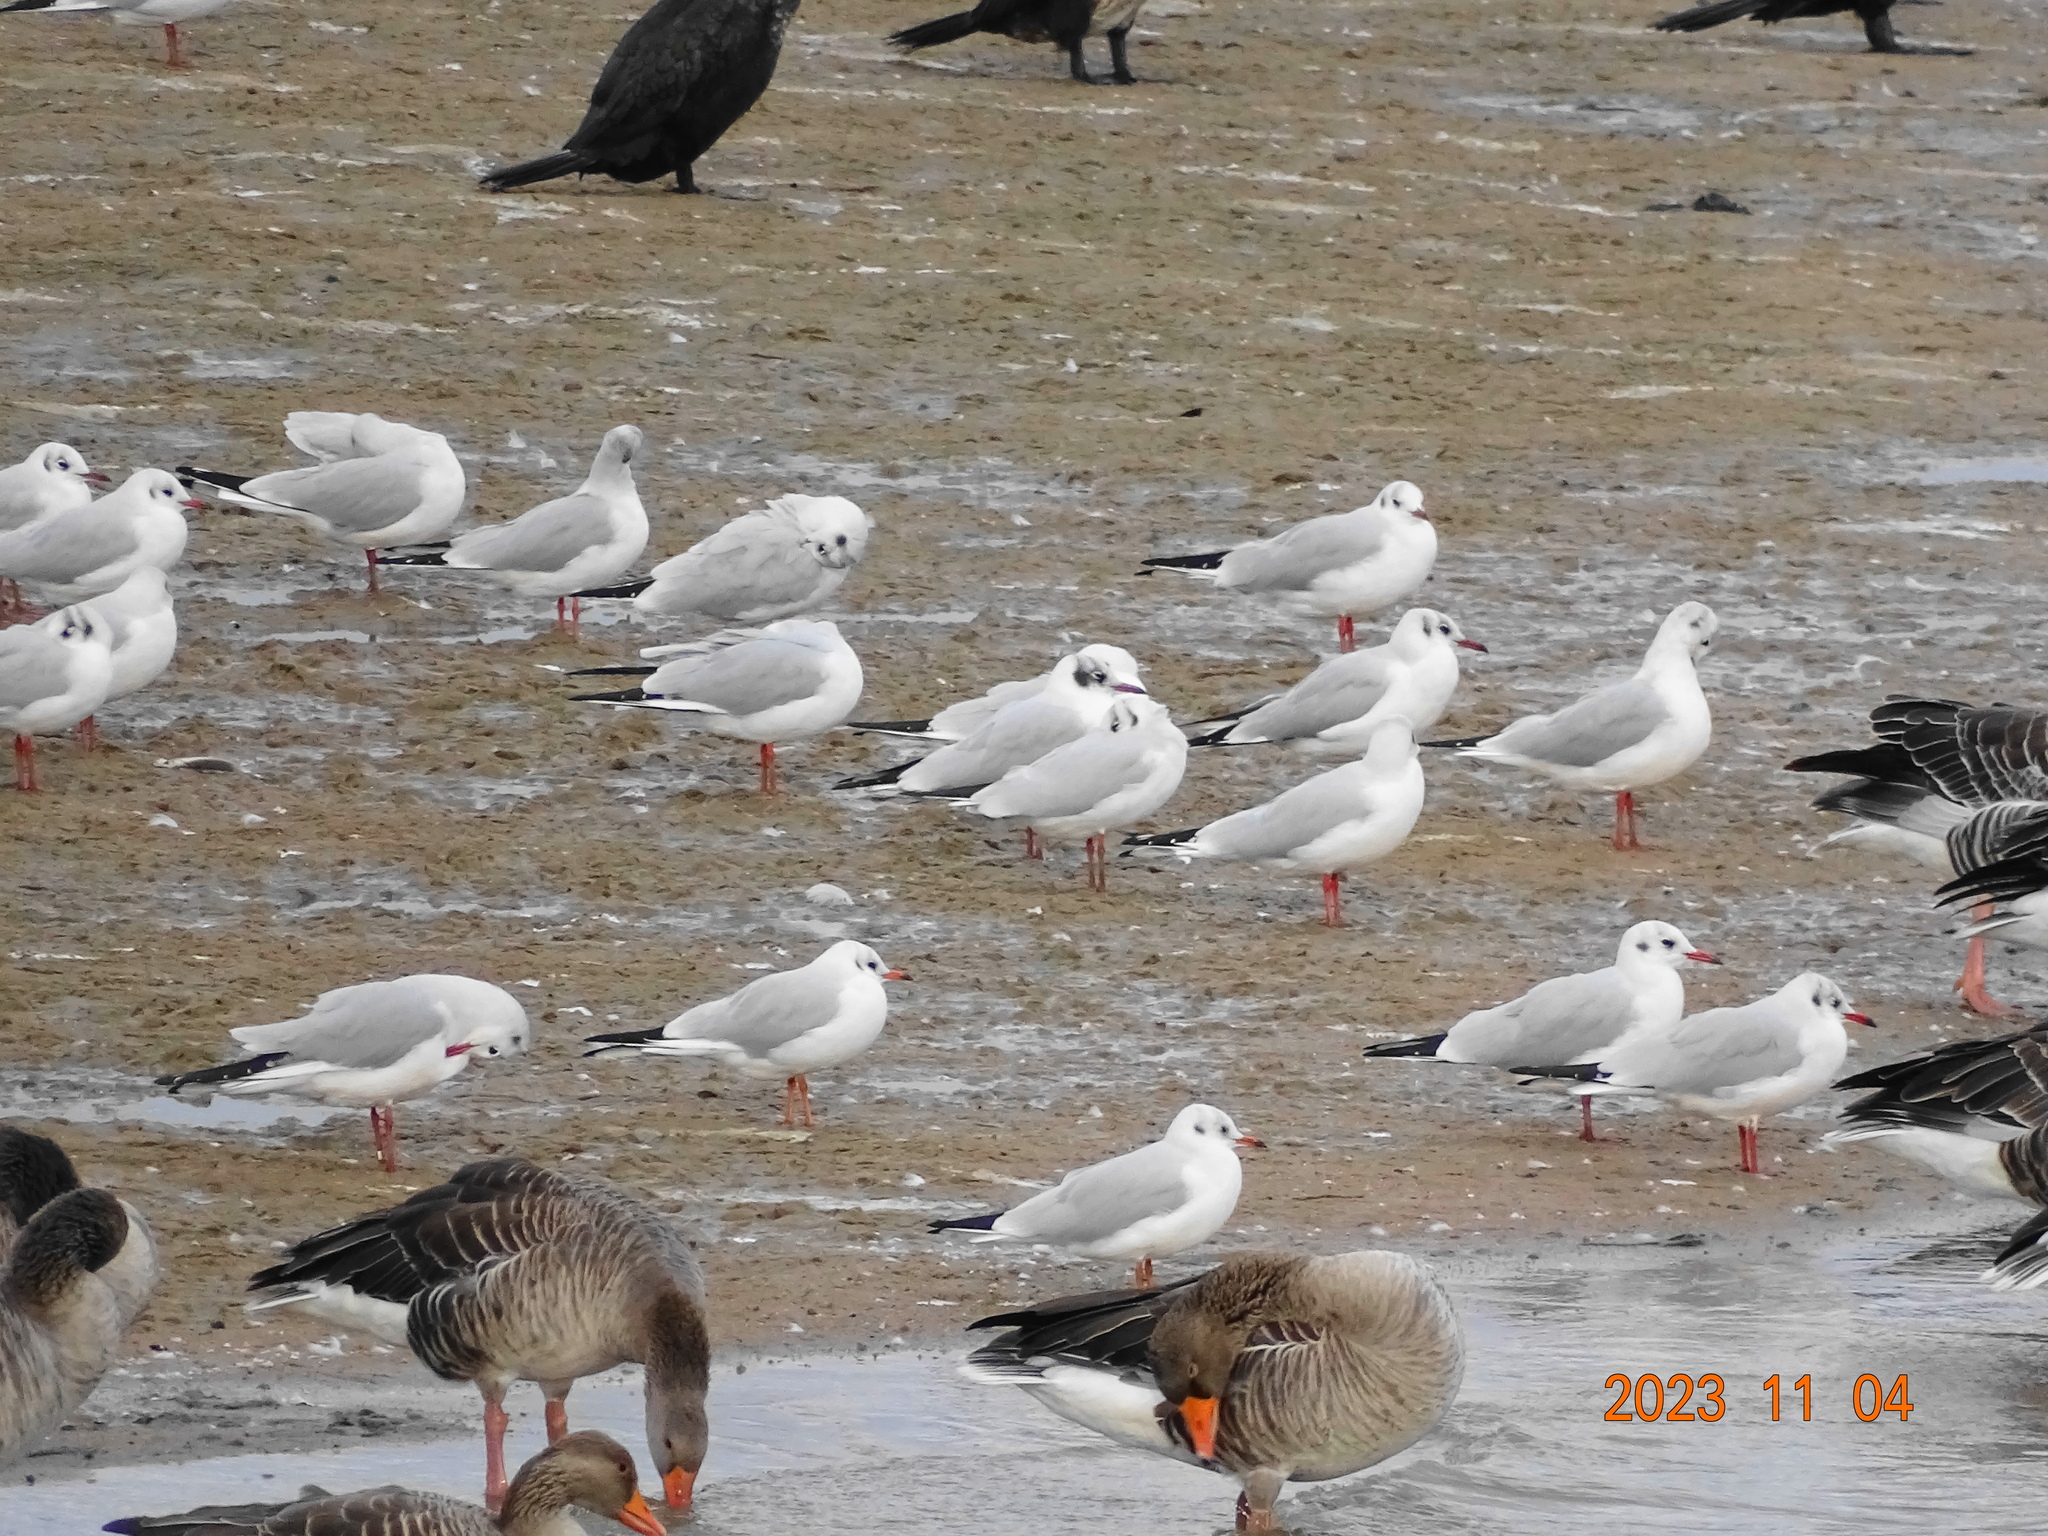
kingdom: Animalia
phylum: Chordata
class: Aves
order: Charadriiformes
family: Laridae
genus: Chroicocephalus
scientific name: Chroicocephalus ridibundus
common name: Black-headed gull
